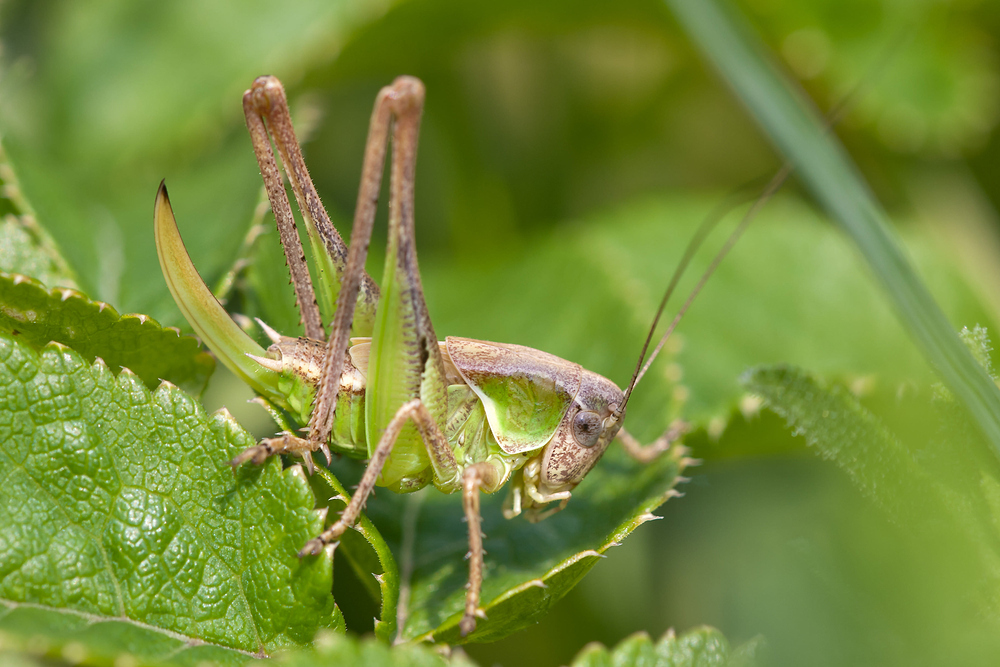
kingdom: Animalia
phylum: Arthropoda
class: Insecta
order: Orthoptera
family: Tettigoniidae
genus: Platycleis
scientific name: Platycleis albopunctata
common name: Grey bush-cricket
